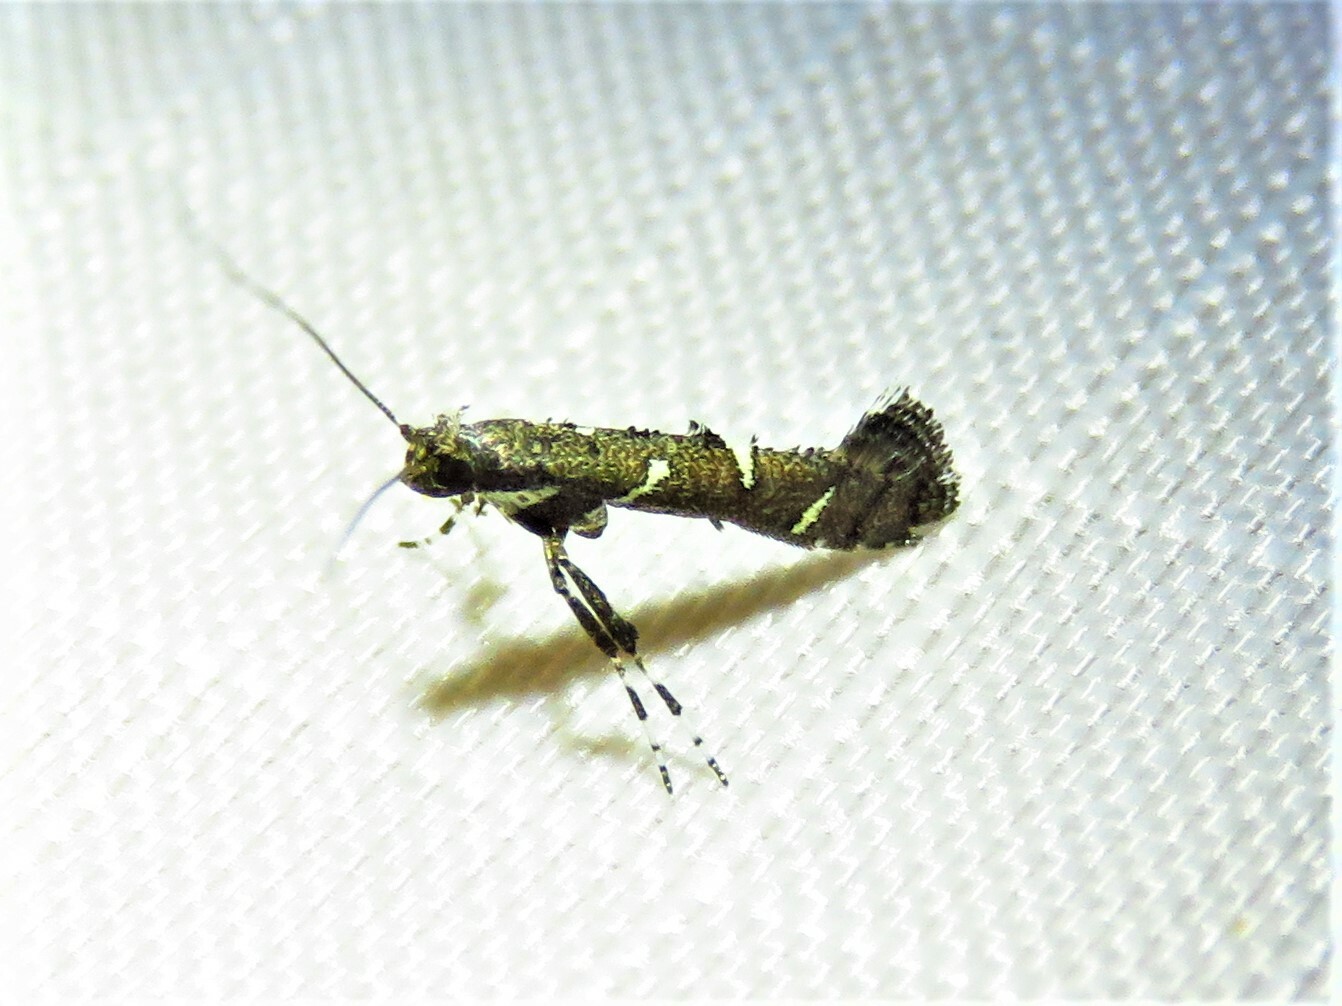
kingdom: Animalia
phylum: Arthropoda
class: Insecta
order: Lepidoptera
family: Gracillariidae
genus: Caloptilia
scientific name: Caloptilia triadicae
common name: Tallow leaf roller
